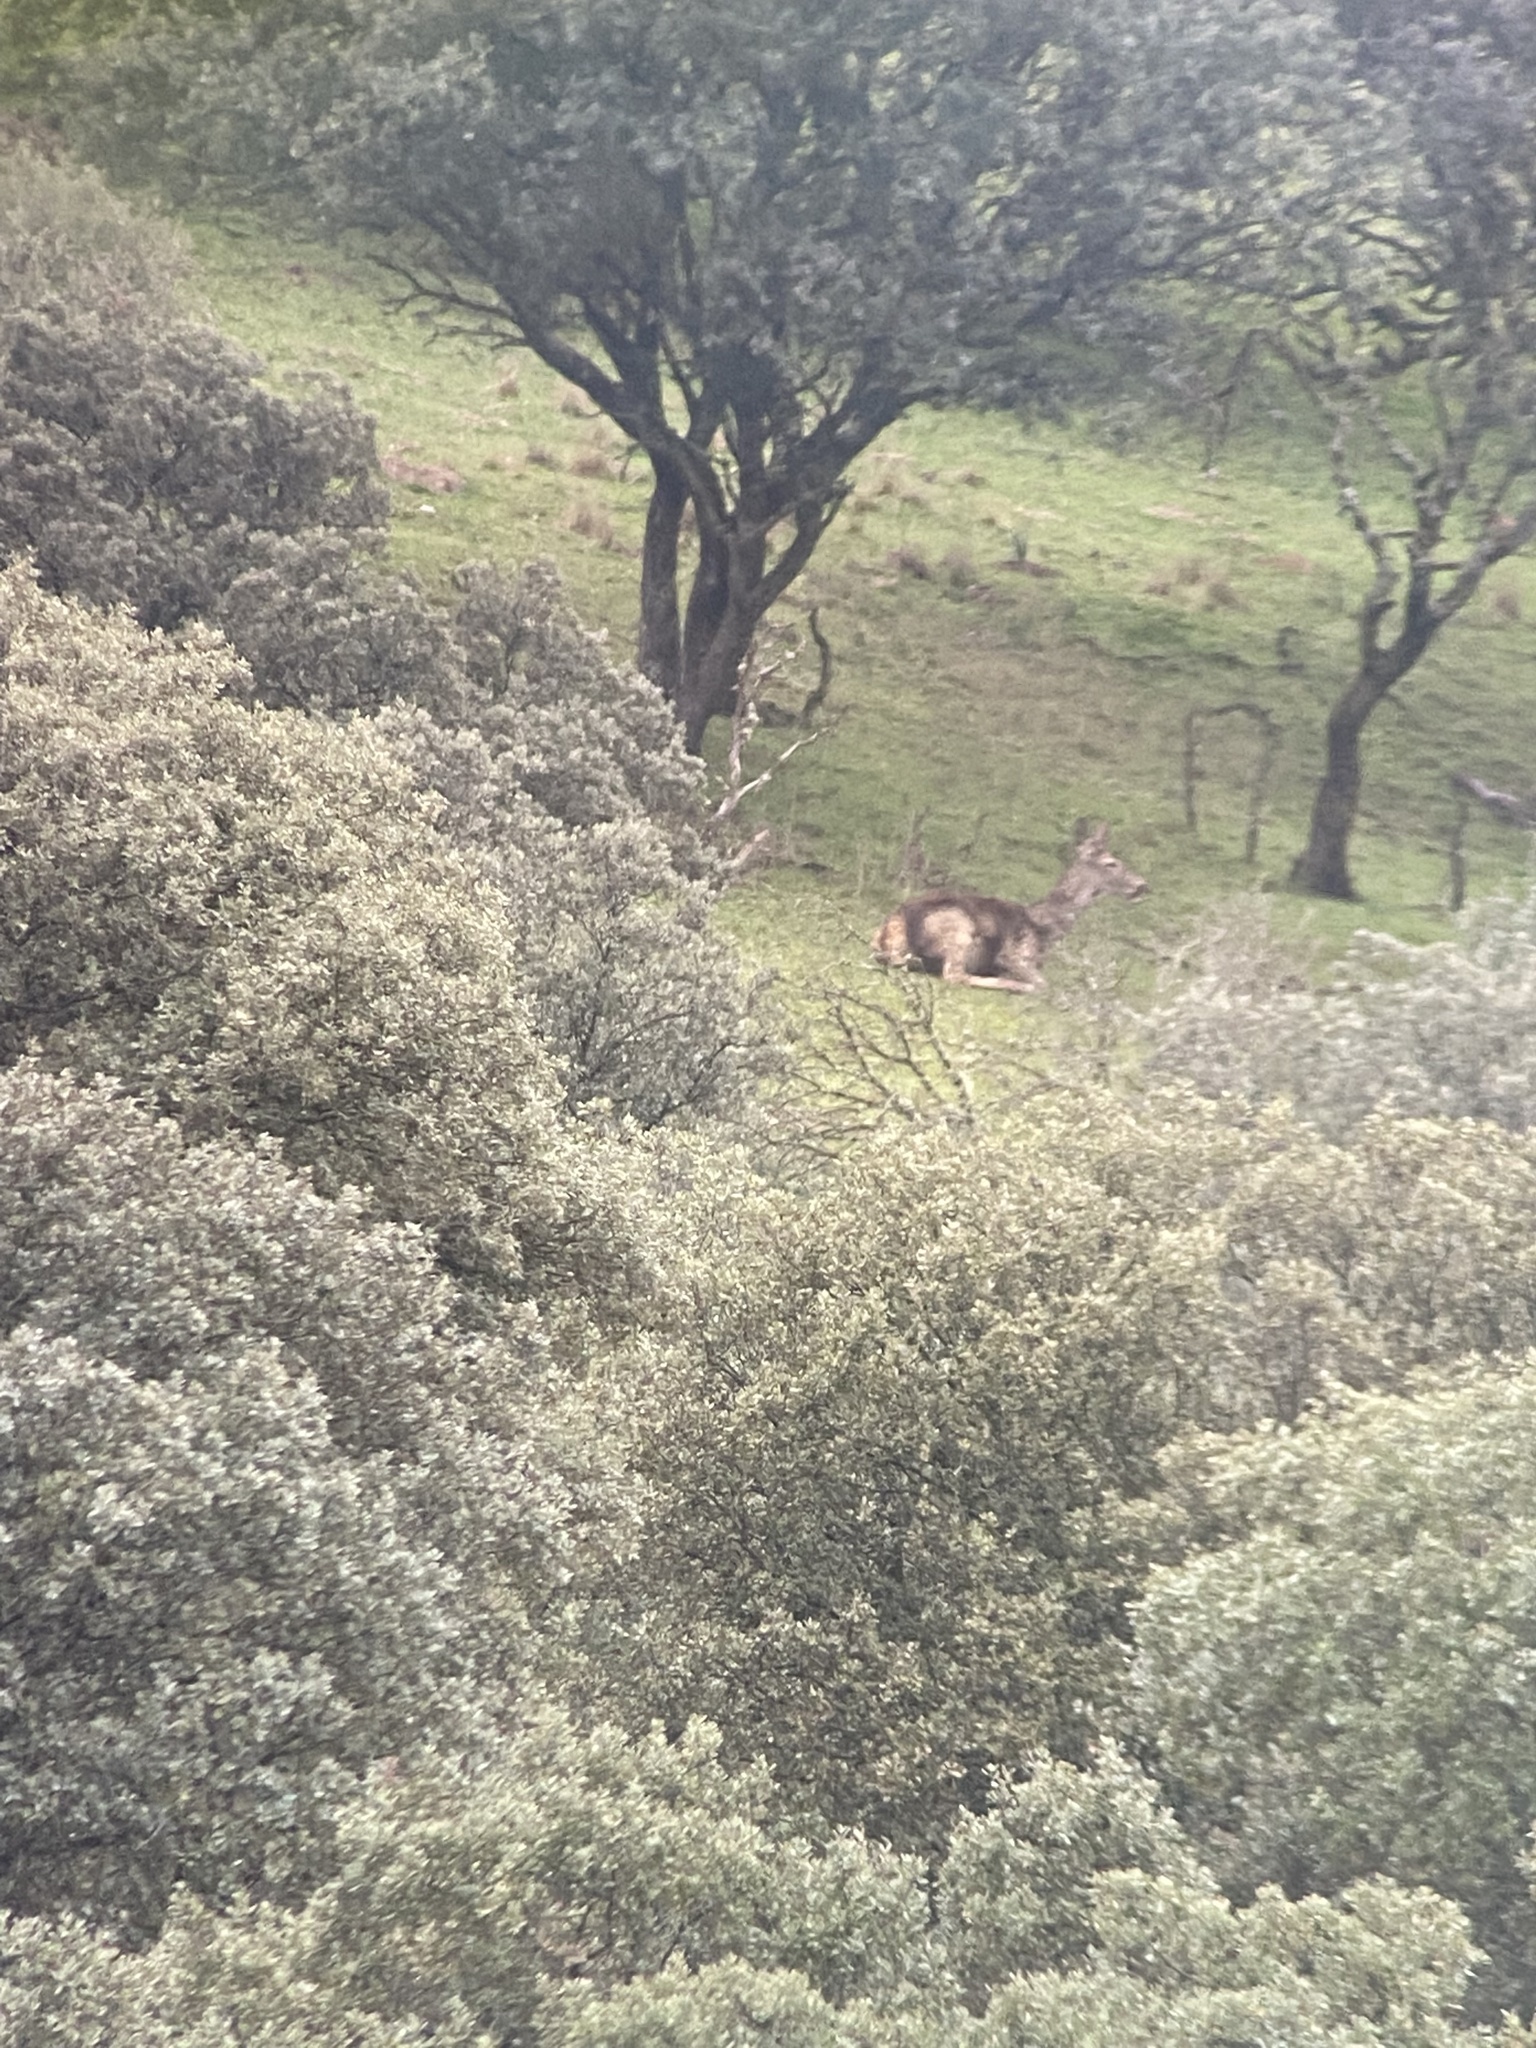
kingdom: Animalia
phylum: Chordata
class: Mammalia
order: Artiodactyla
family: Cervidae
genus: Cervus
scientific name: Cervus elaphus
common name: Red deer
